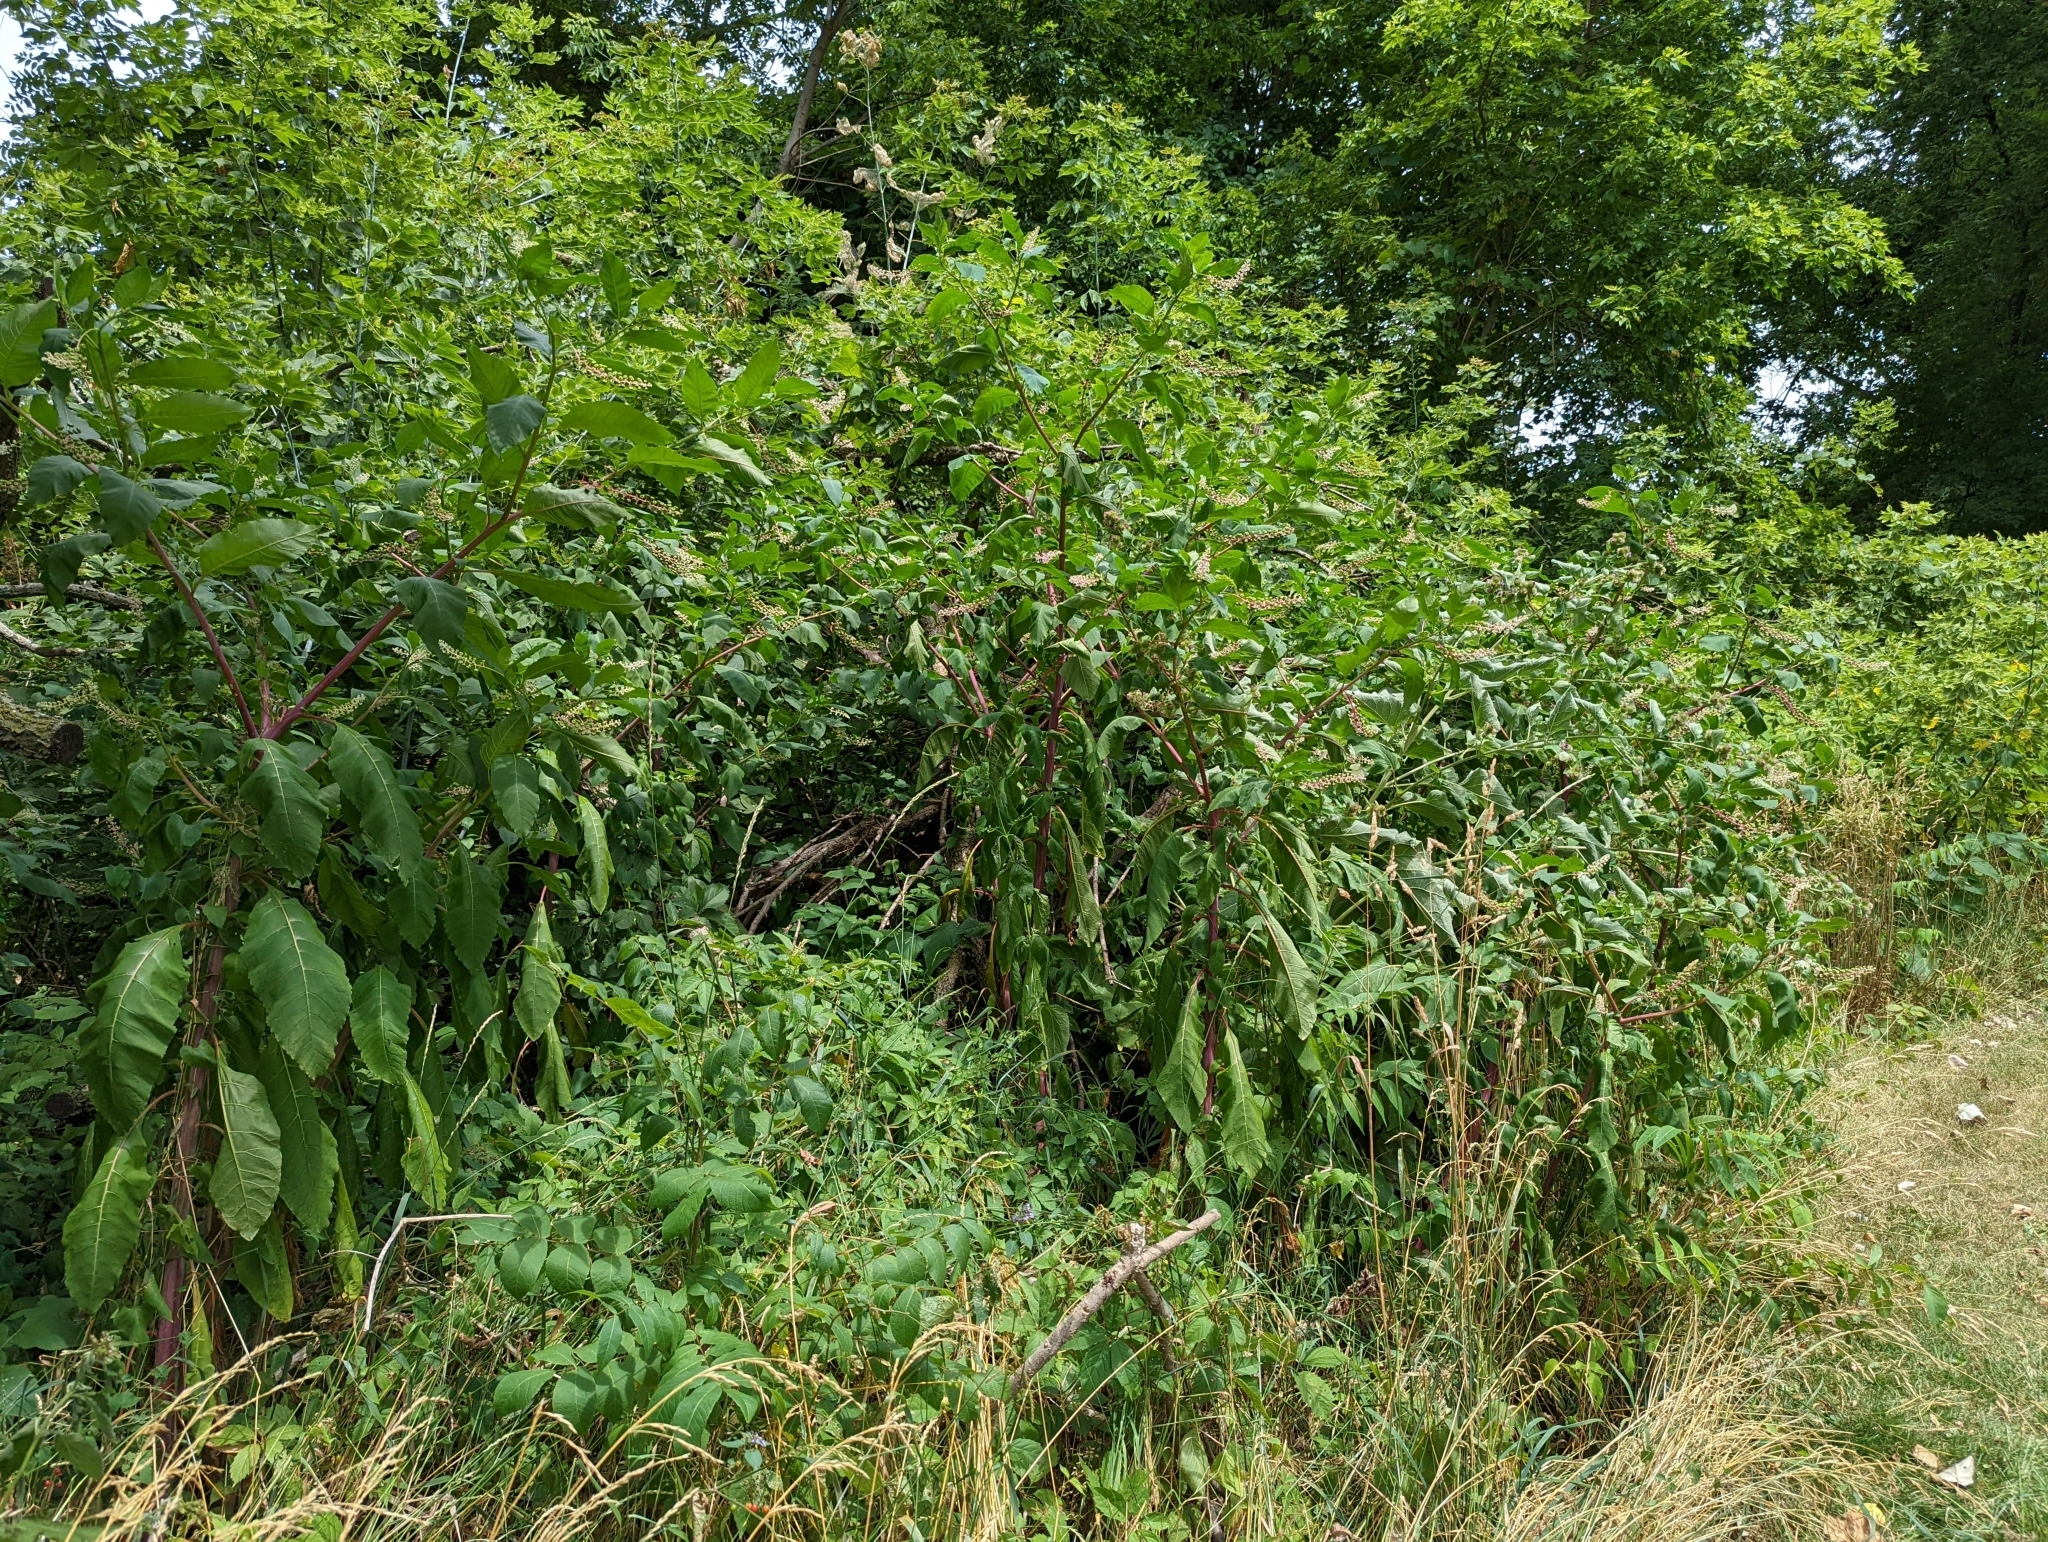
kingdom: Plantae
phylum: Tracheophyta
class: Magnoliopsida
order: Caryophyllales
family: Phytolaccaceae
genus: Phytolacca
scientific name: Phytolacca americana
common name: American pokeweed
